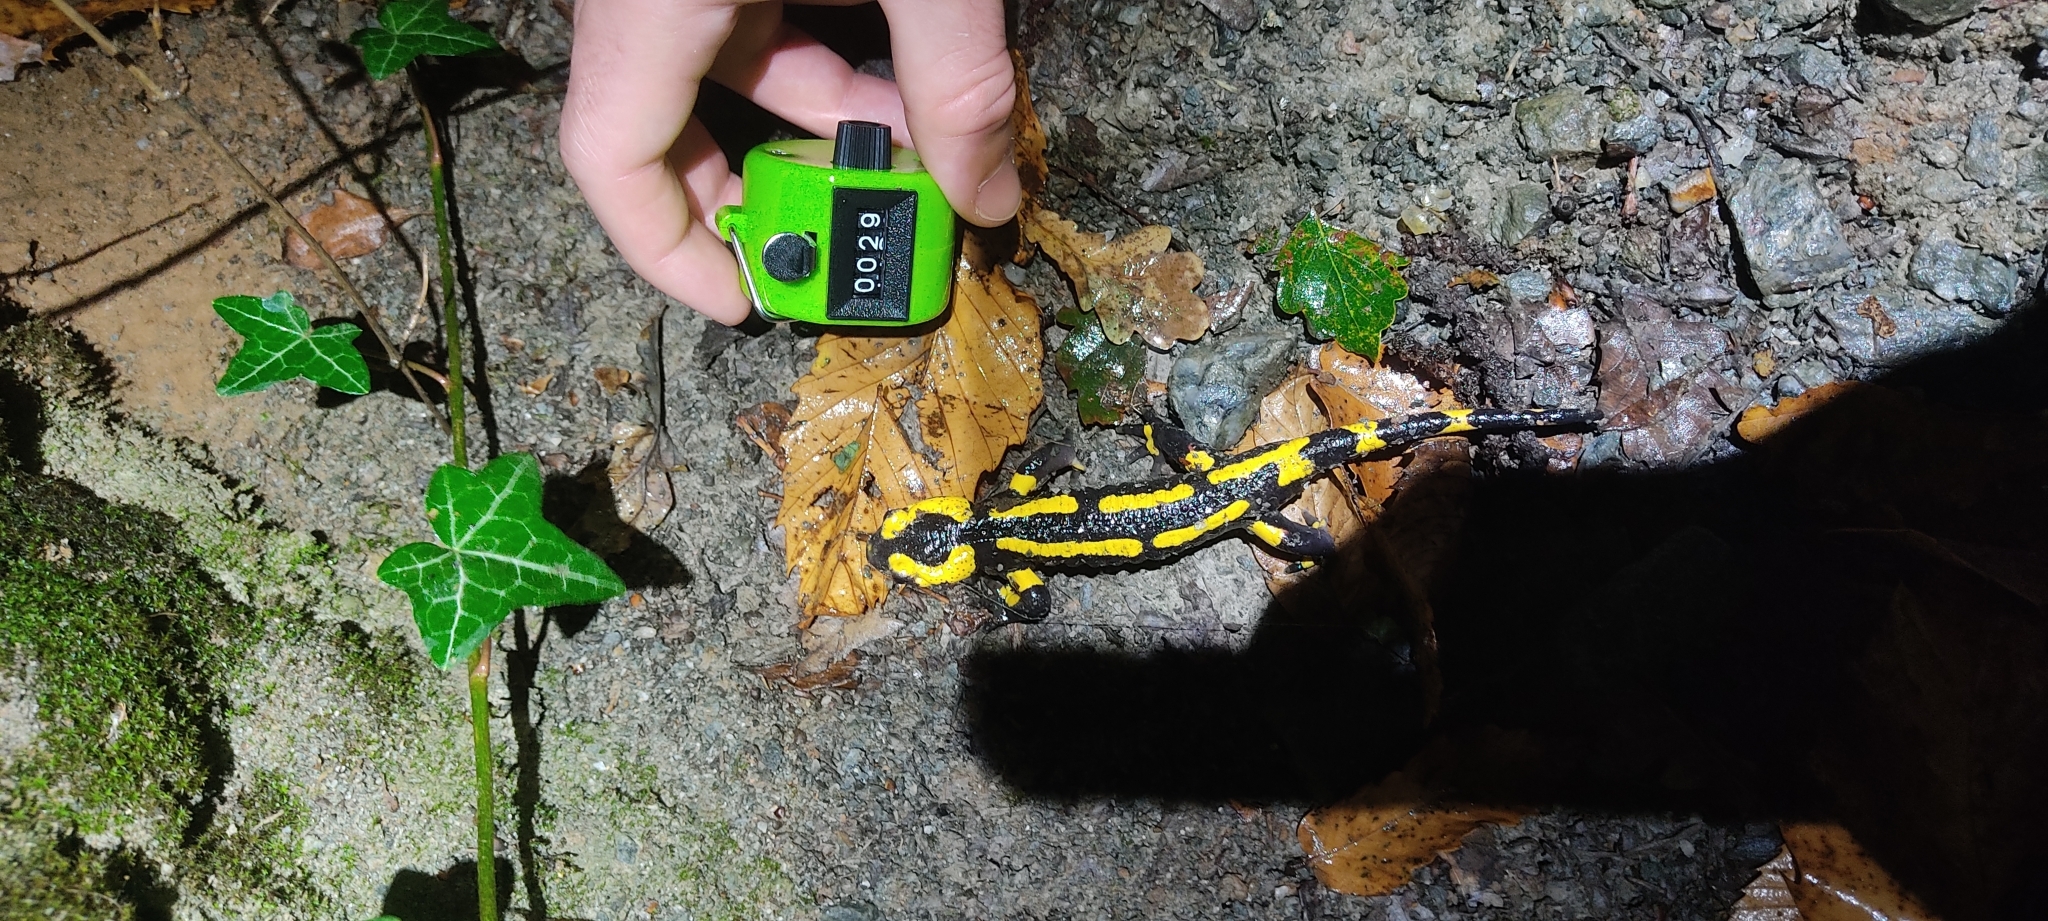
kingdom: Animalia
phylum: Chordata
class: Amphibia
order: Caudata
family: Salamandridae
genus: Salamandra
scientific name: Salamandra salamandra
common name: Fire salamander
